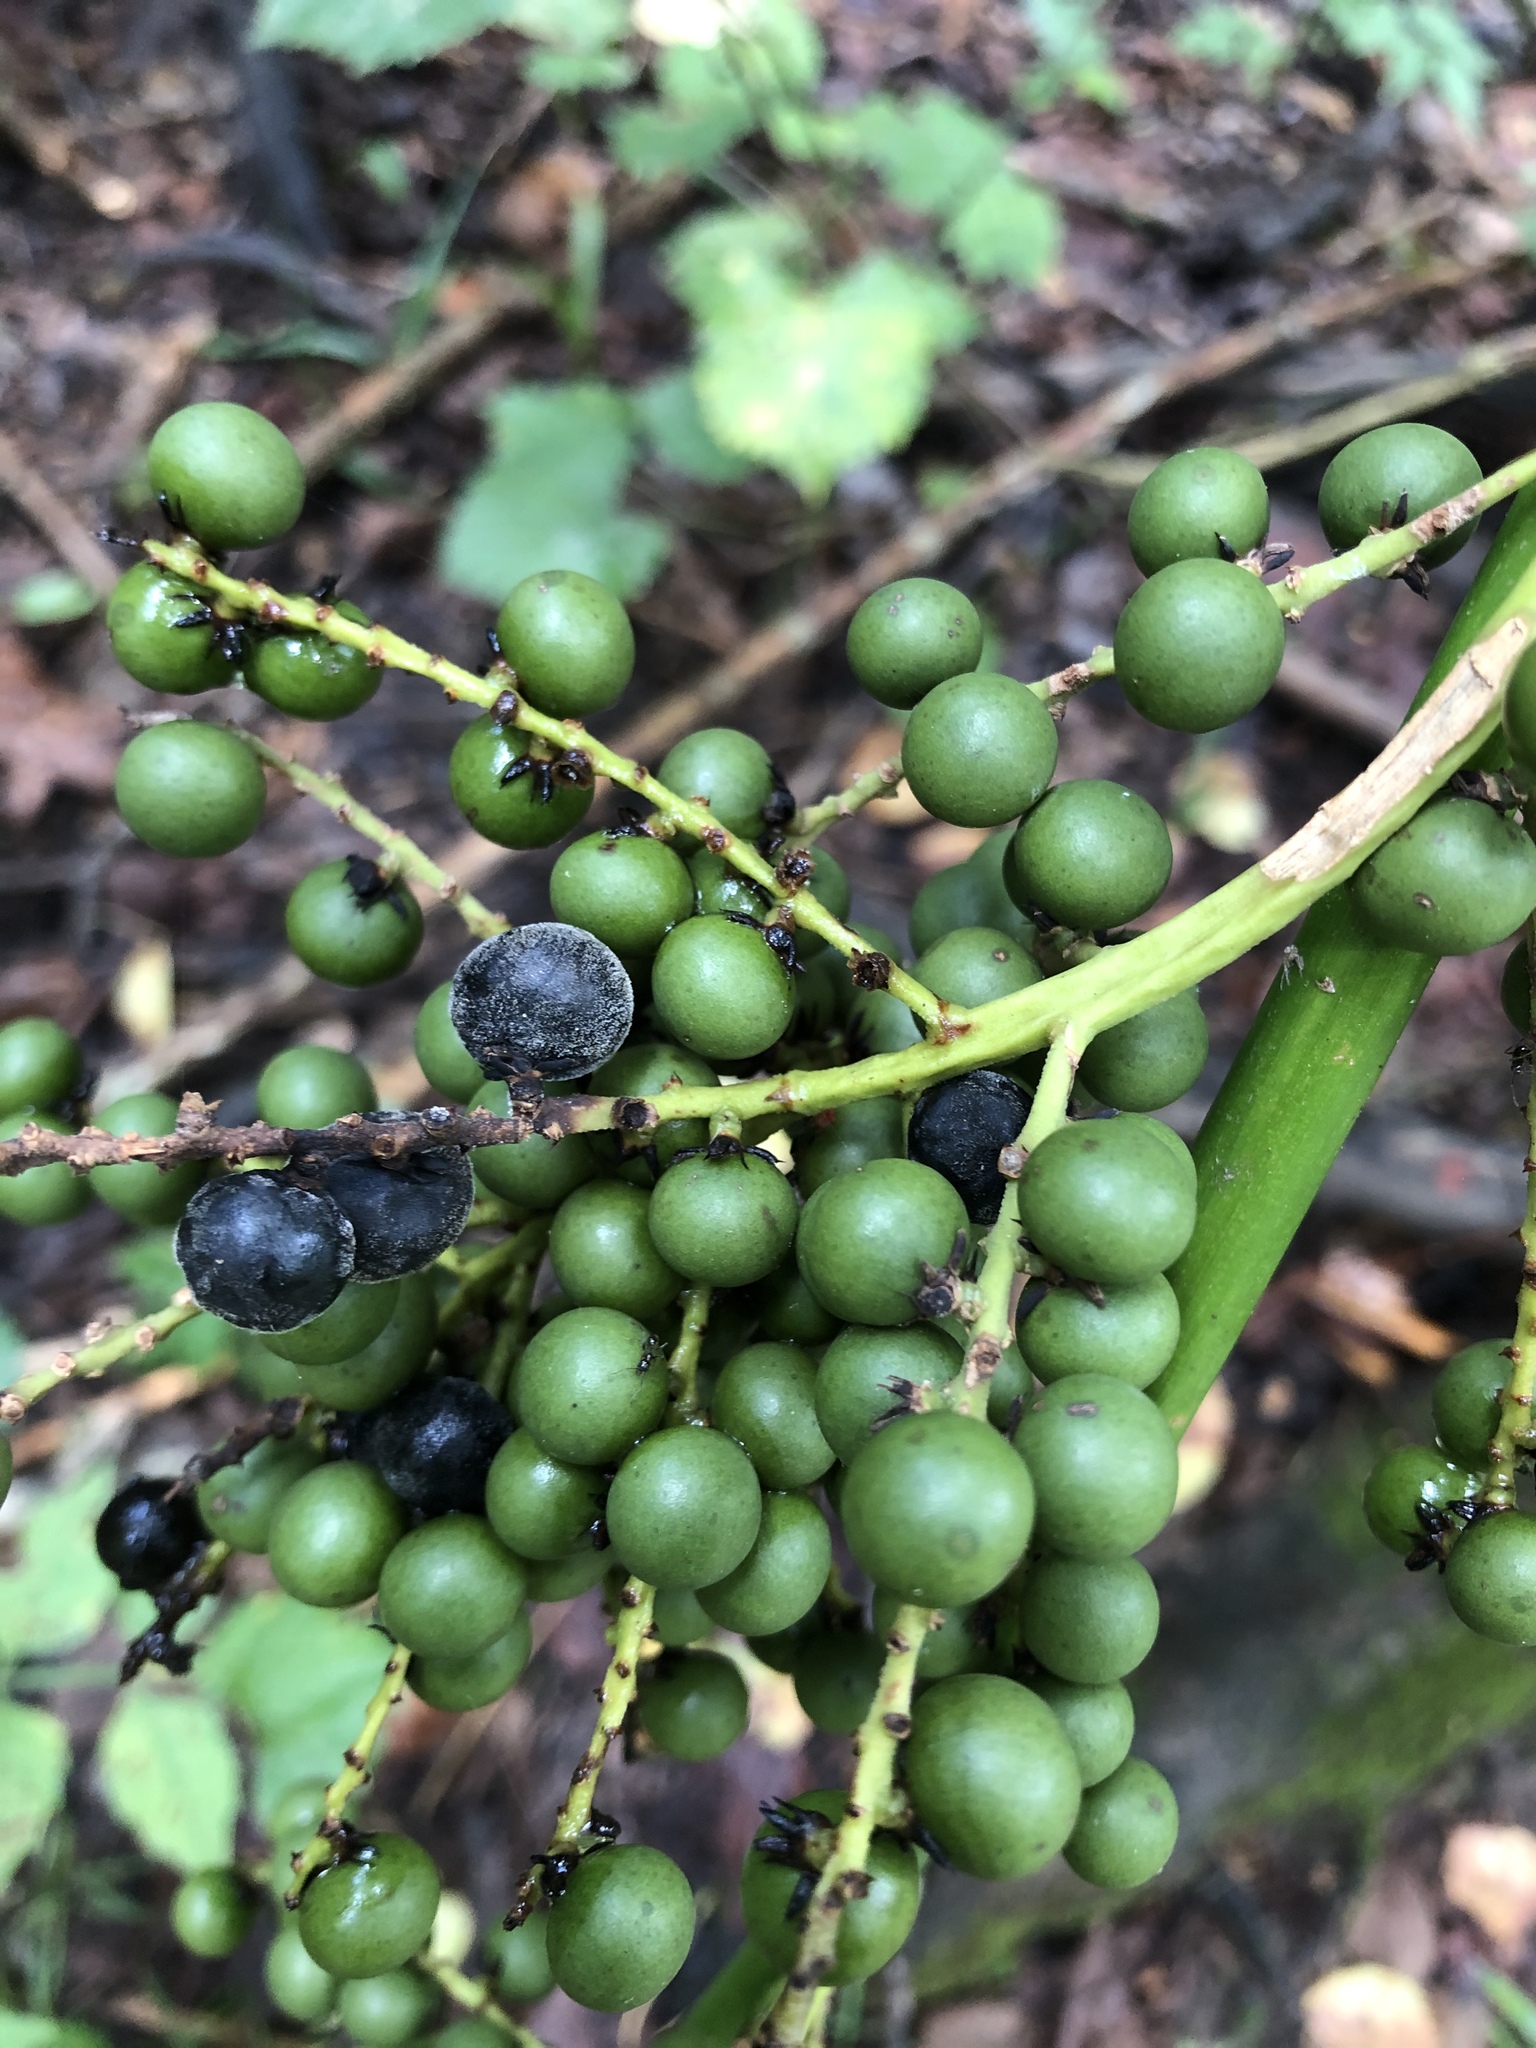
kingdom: Plantae
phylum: Tracheophyta
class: Liliopsida
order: Arecales
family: Arecaceae
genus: Sabal
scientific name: Sabal minor
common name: Dwarf palmetto
